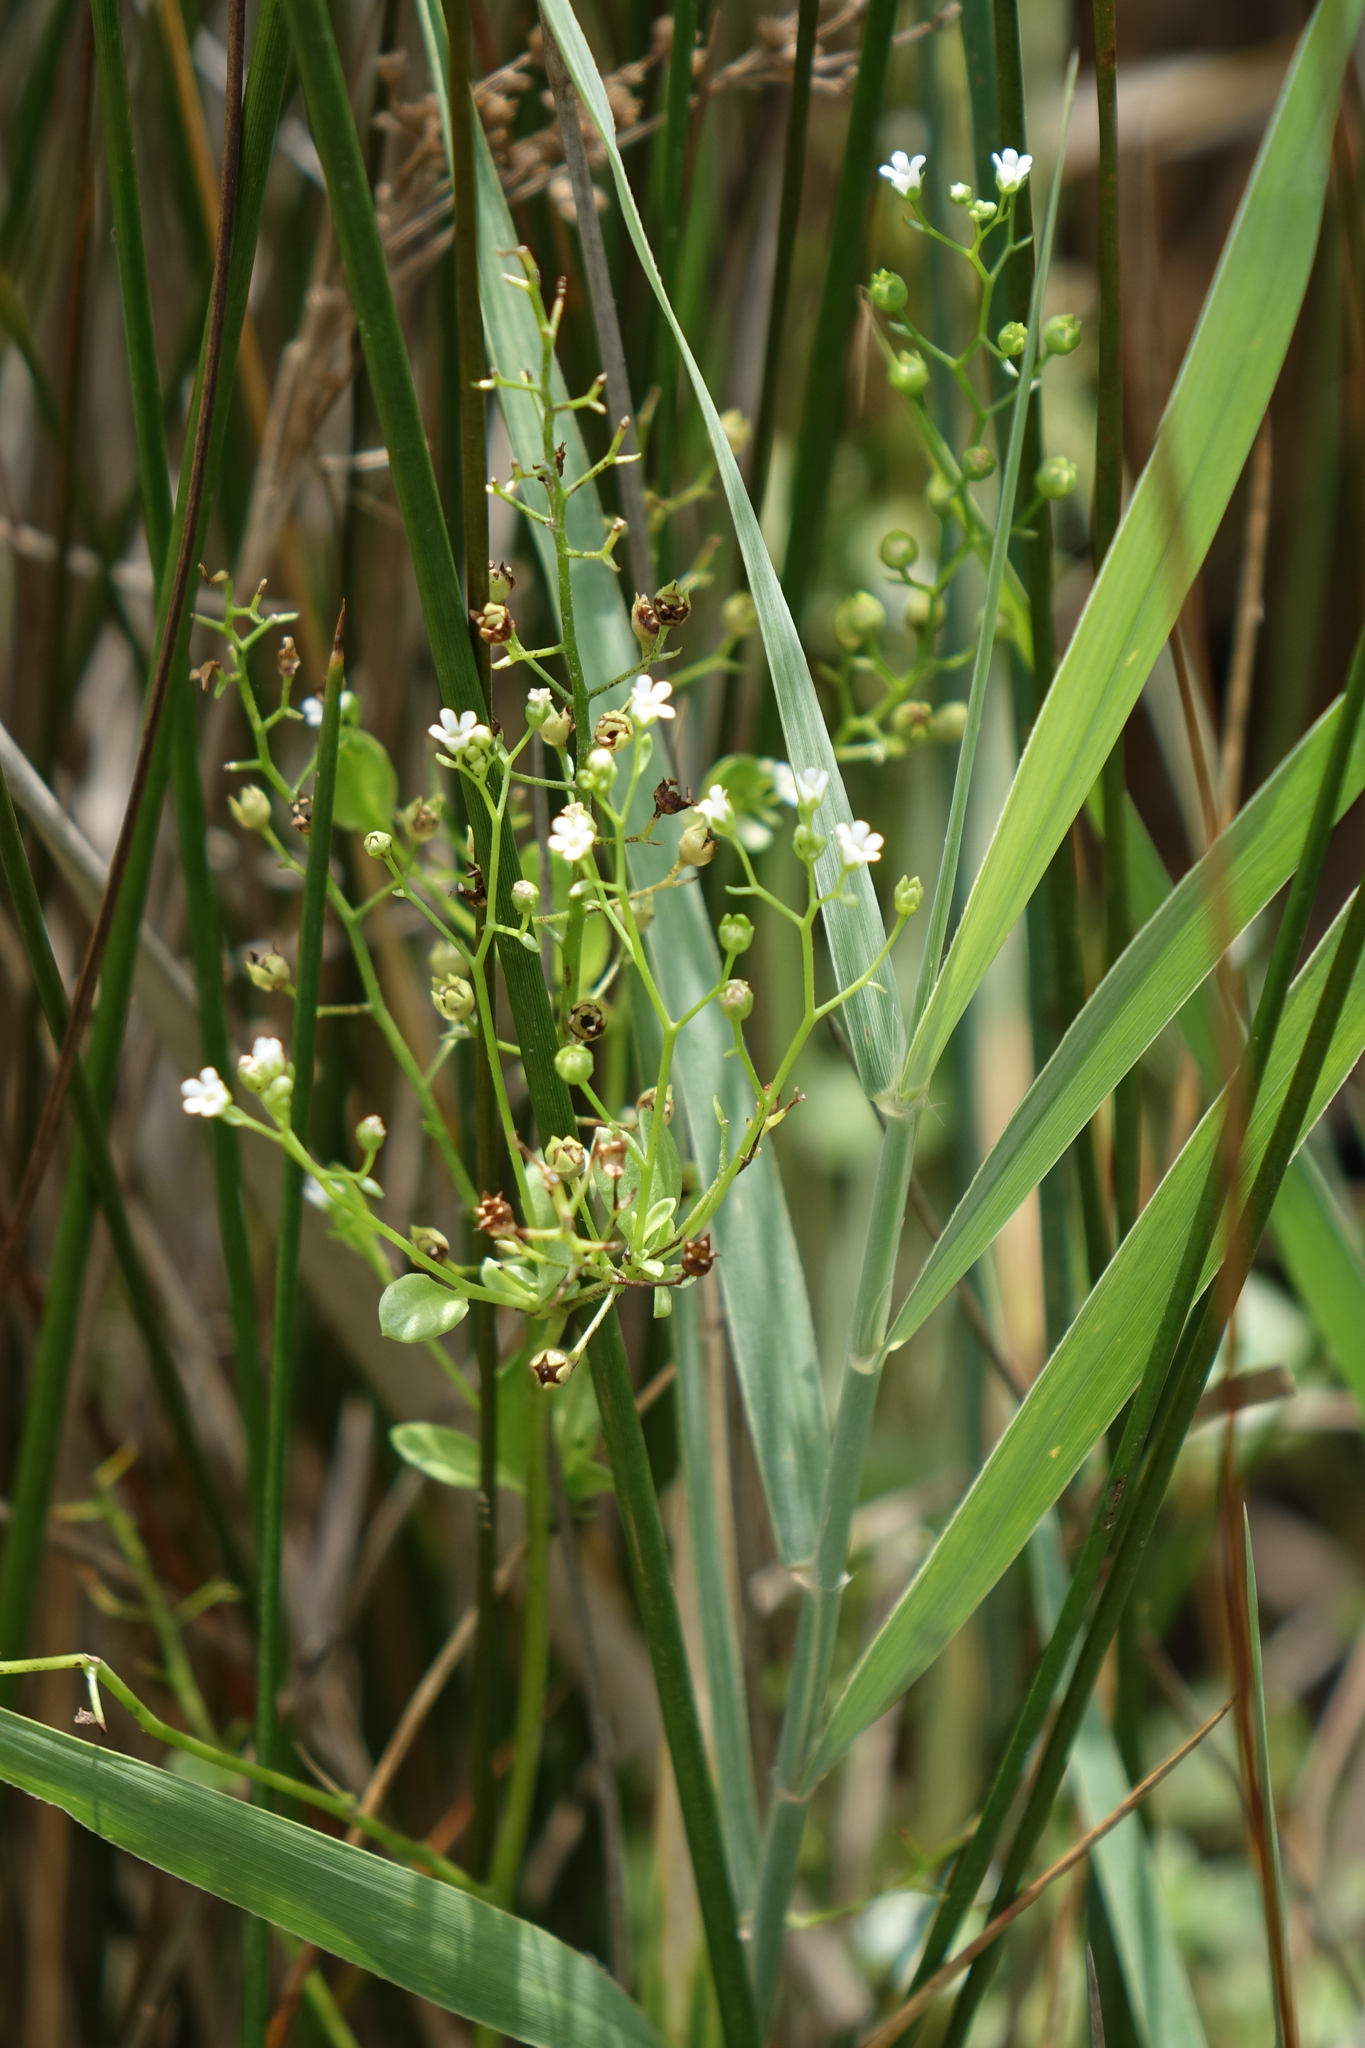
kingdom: Plantae
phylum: Tracheophyta
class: Magnoliopsida
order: Ericales
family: Primulaceae
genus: Samolus
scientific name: Samolus valerandi
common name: Brookweed
